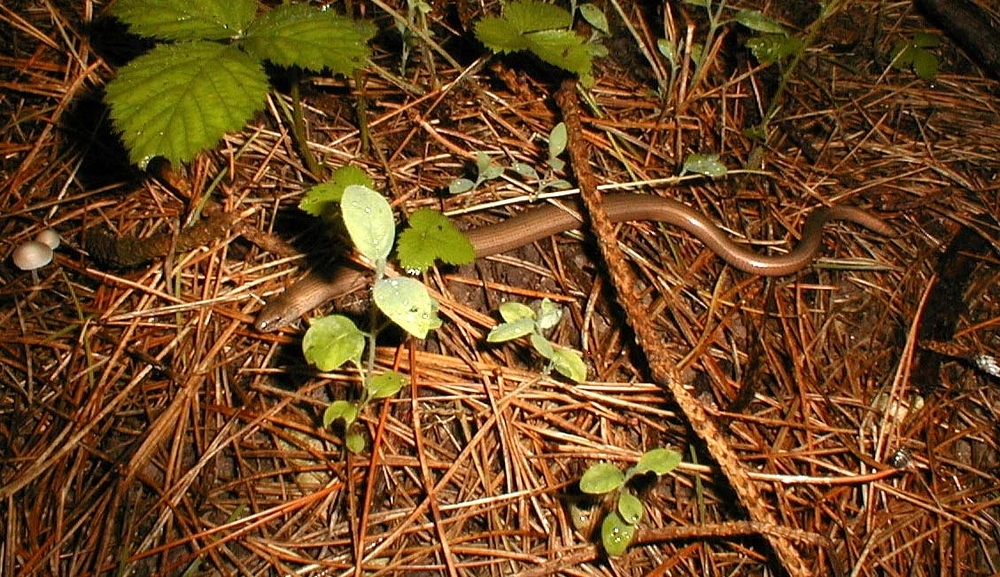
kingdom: Animalia
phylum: Chordata
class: Squamata
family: Anguidae
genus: Anguis
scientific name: Anguis fragilis
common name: Slow worm
